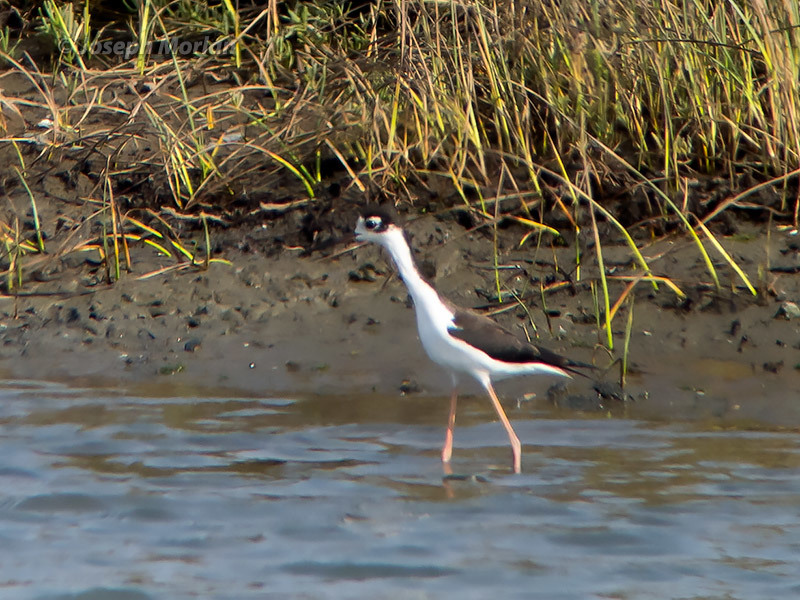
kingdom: Animalia
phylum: Chordata
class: Aves
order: Charadriiformes
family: Recurvirostridae
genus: Himantopus
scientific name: Himantopus mexicanus
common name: Black-necked stilt
